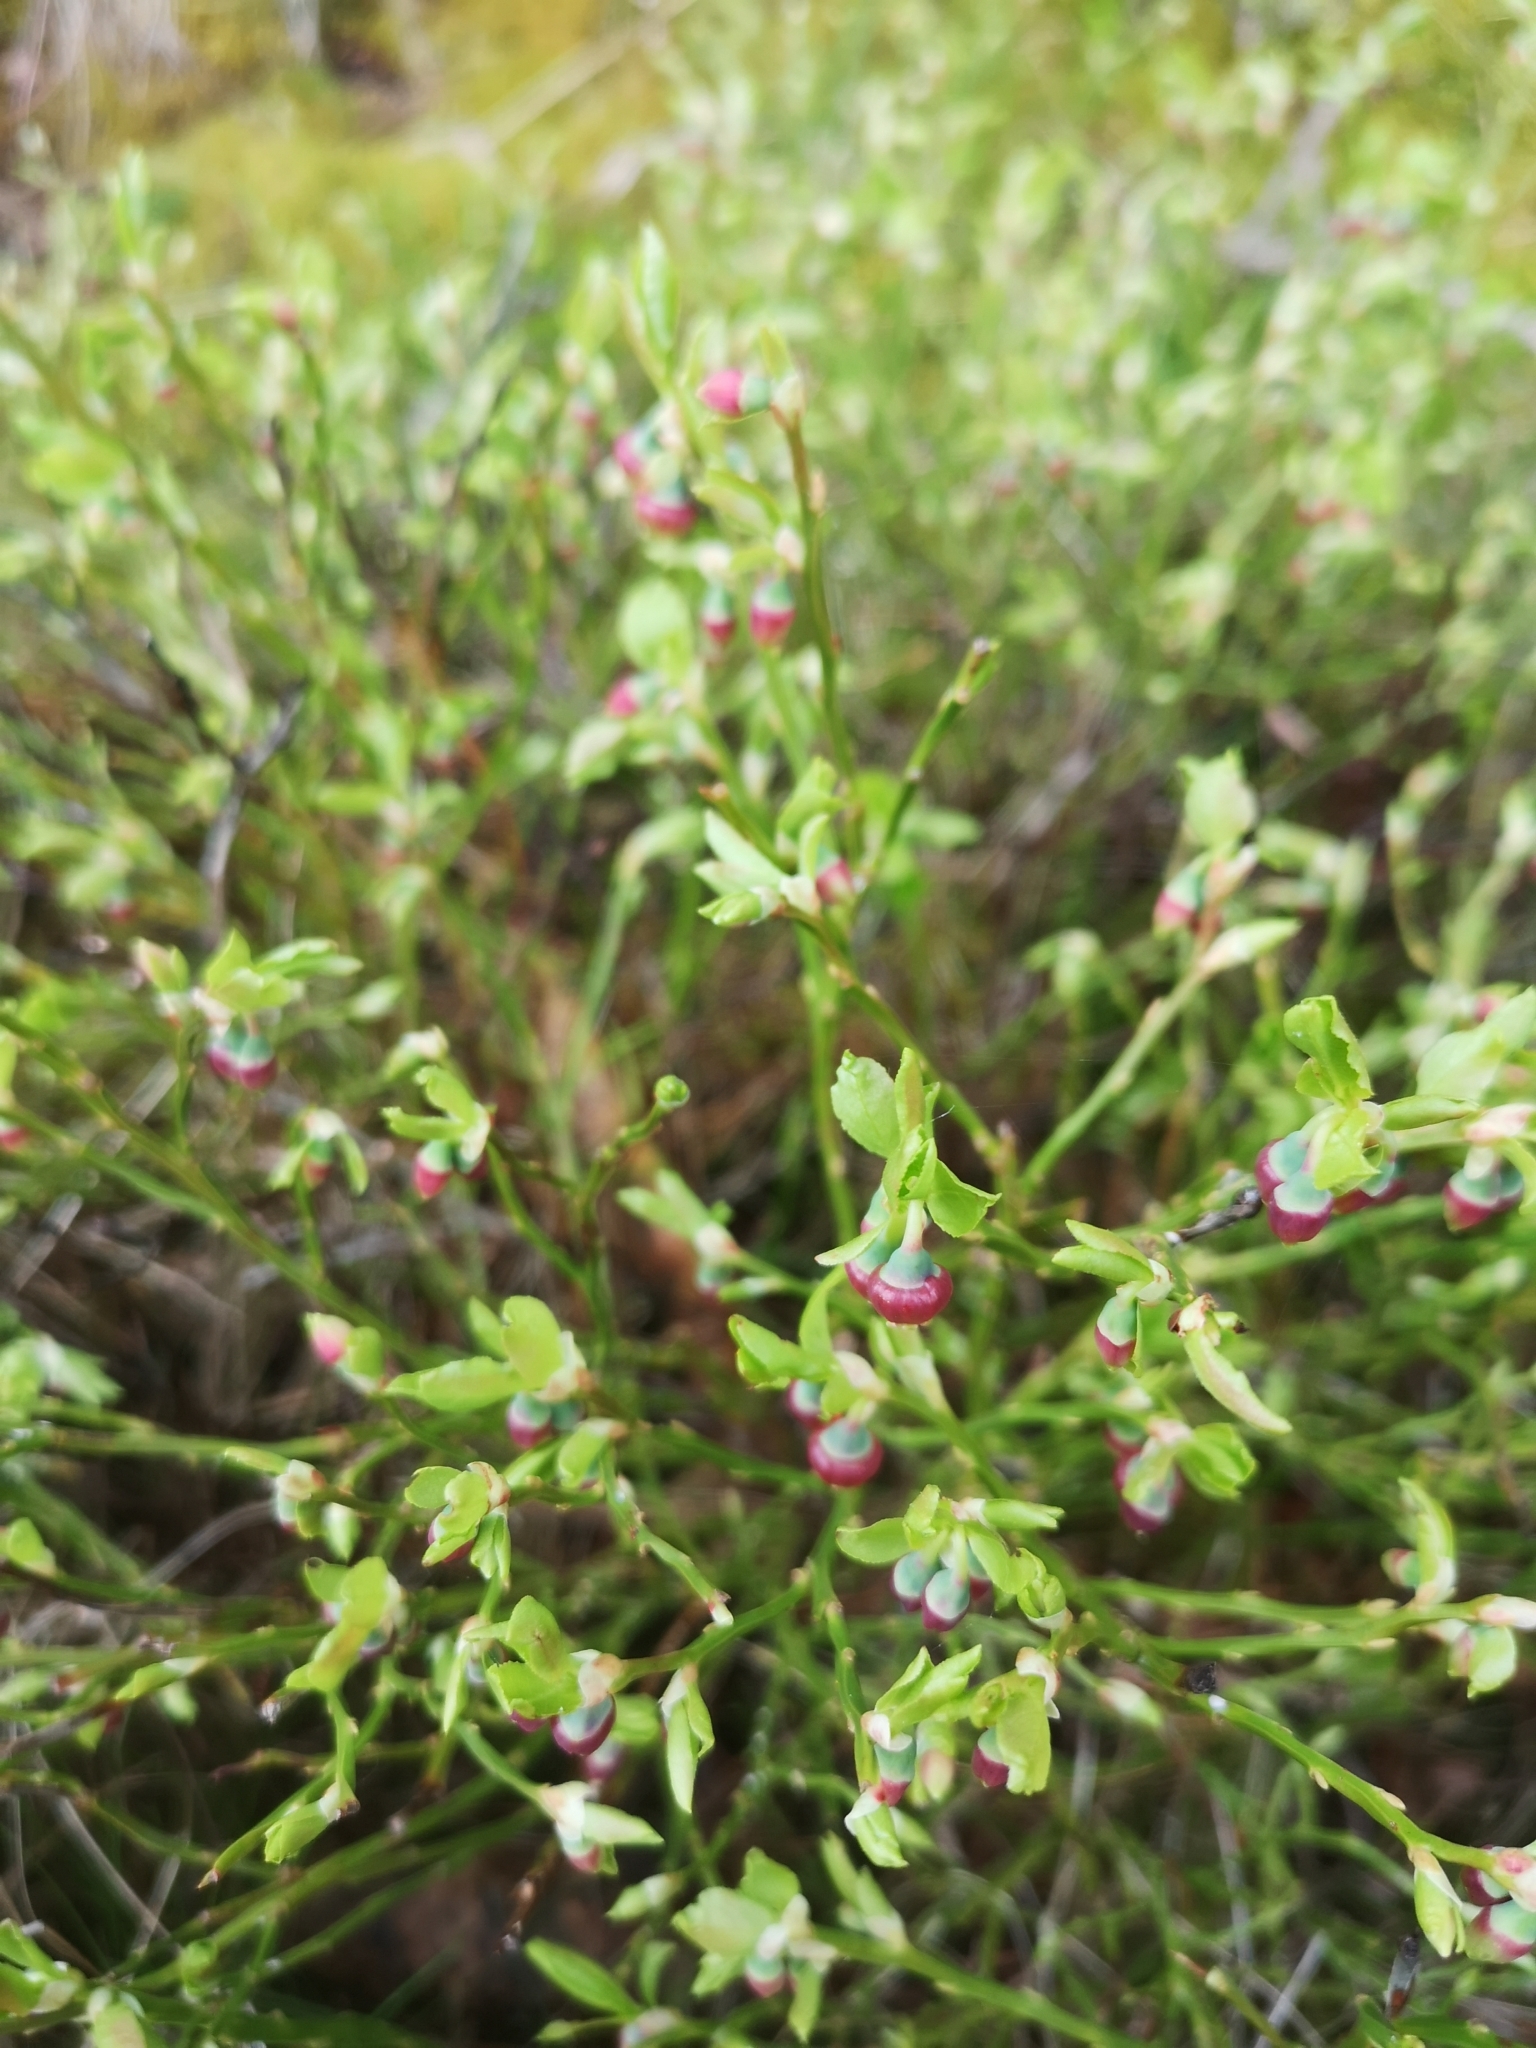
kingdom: Plantae
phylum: Tracheophyta
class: Magnoliopsida
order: Ericales
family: Ericaceae
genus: Vaccinium
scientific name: Vaccinium myrtillus
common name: Bilberry
